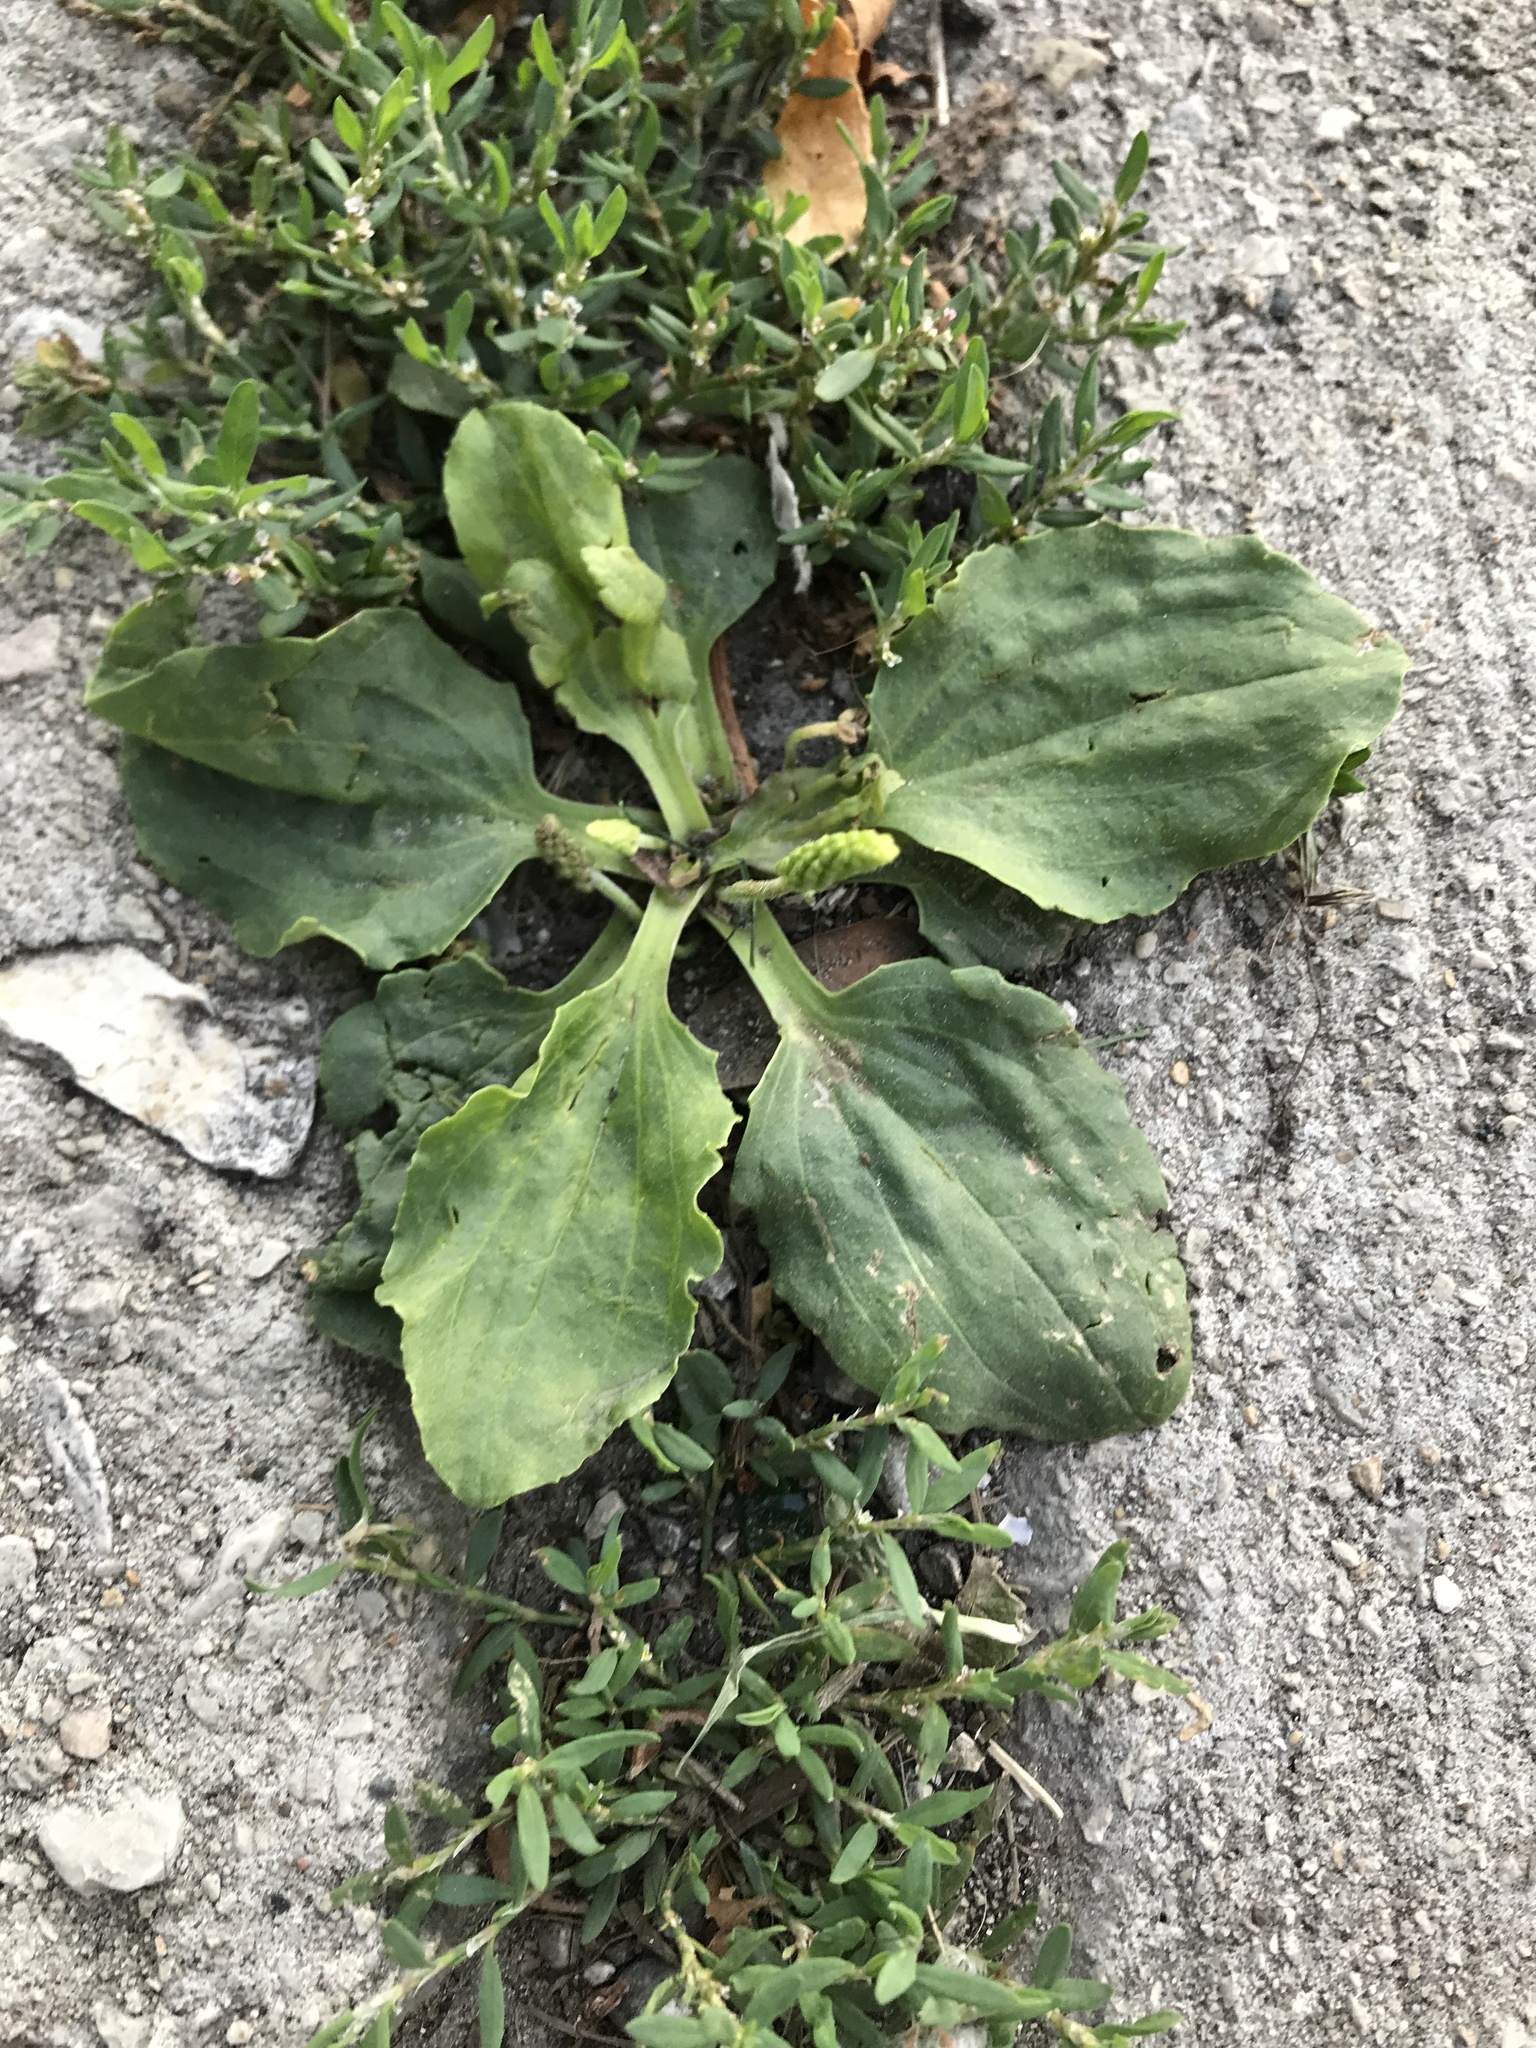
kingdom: Plantae
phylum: Tracheophyta
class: Magnoliopsida
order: Lamiales
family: Plantaginaceae
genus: Plantago
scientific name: Plantago major
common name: Common plantain
